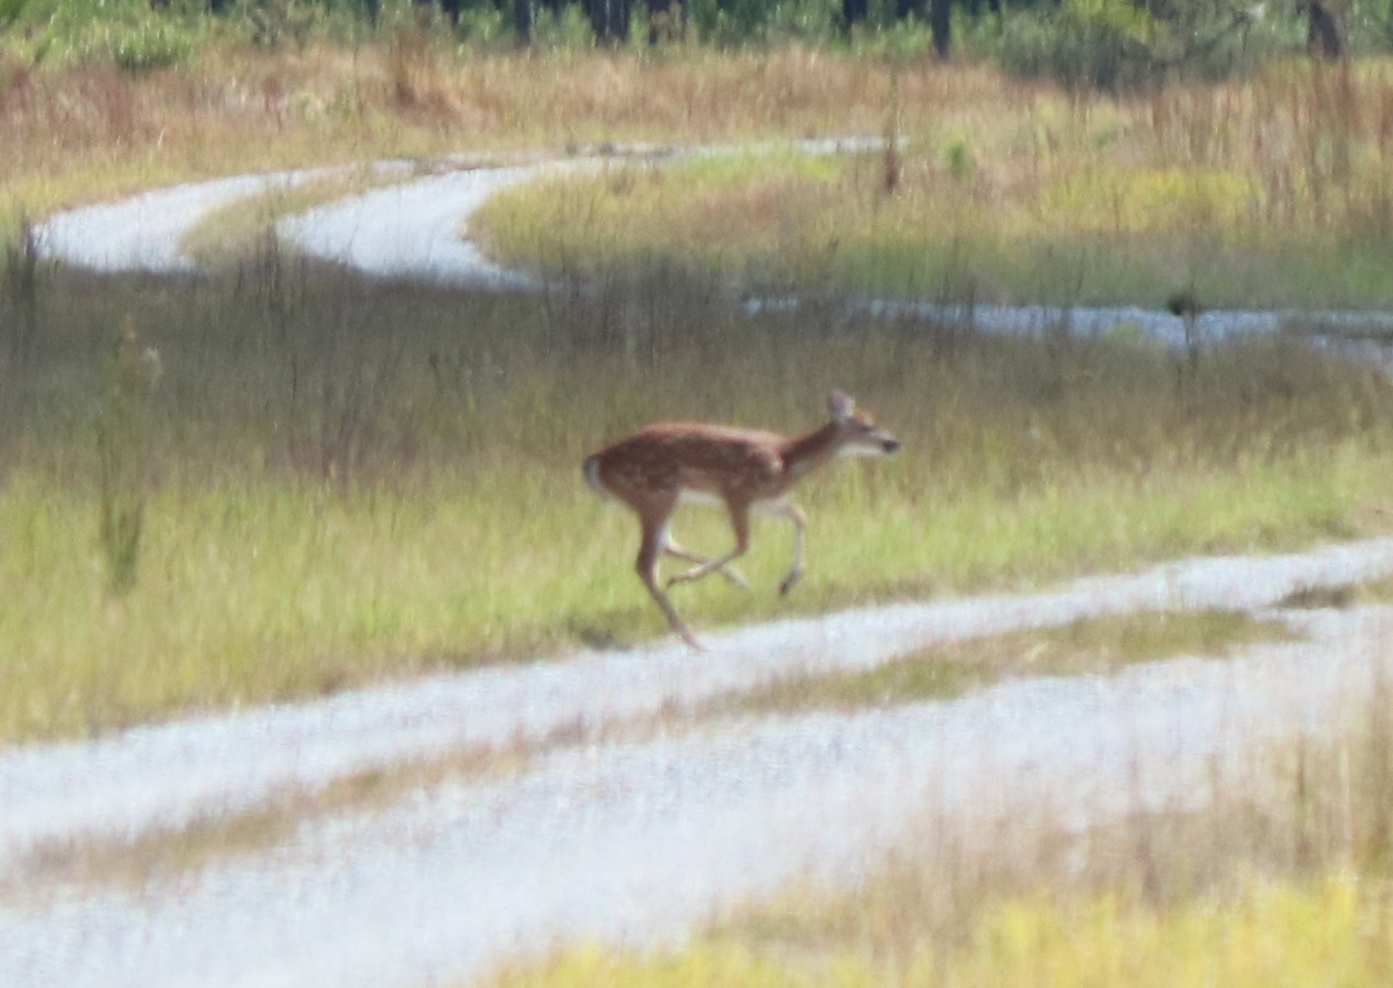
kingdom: Animalia
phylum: Chordata
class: Mammalia
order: Artiodactyla
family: Cervidae
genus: Odocoileus
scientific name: Odocoileus virginianus
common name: White-tailed deer
